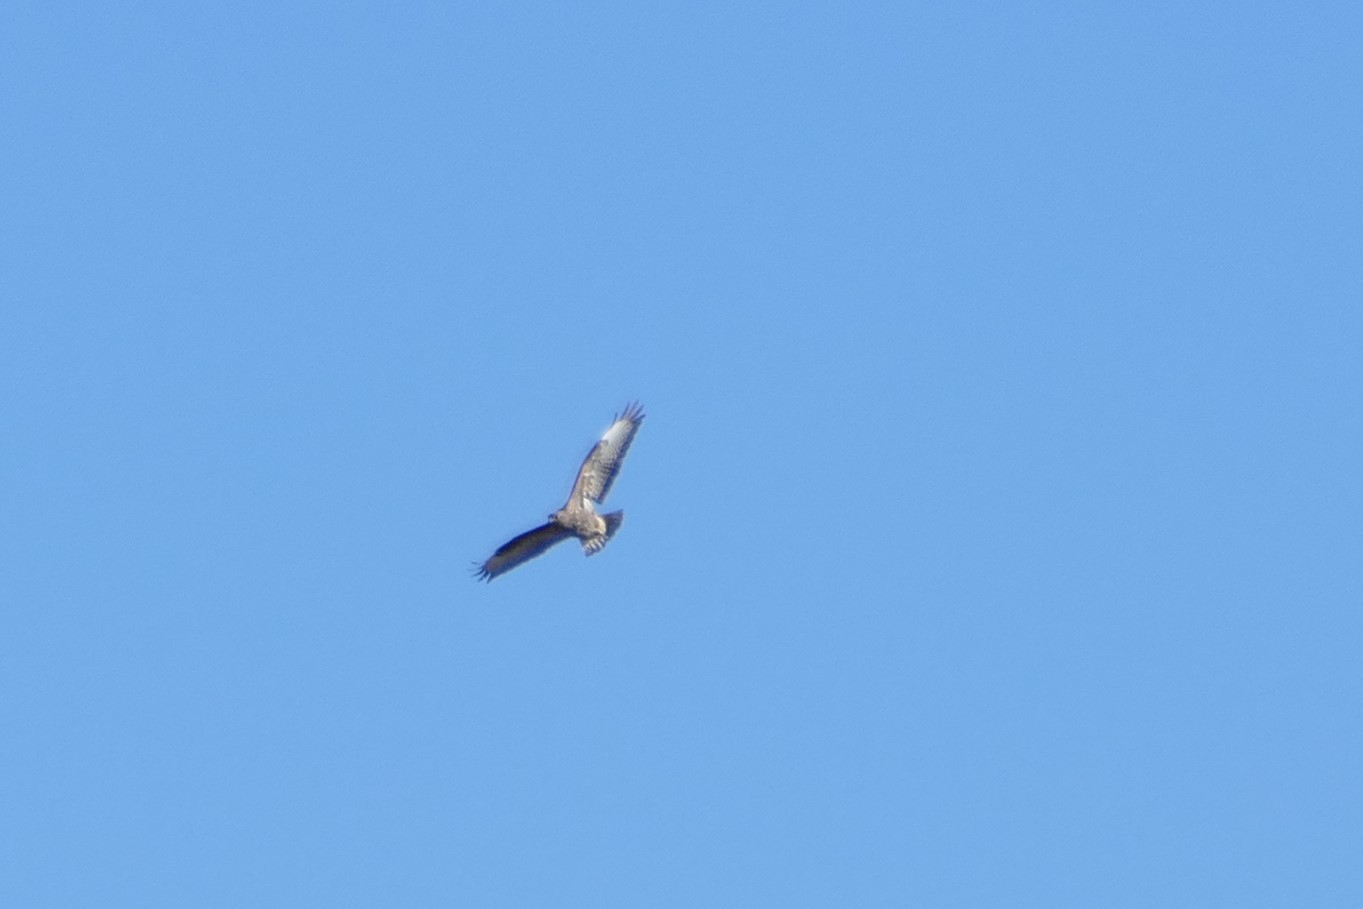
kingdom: Animalia
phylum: Chordata
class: Aves
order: Accipitriformes
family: Accipitridae
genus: Buteo
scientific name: Buteo buteo
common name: Common buzzard
